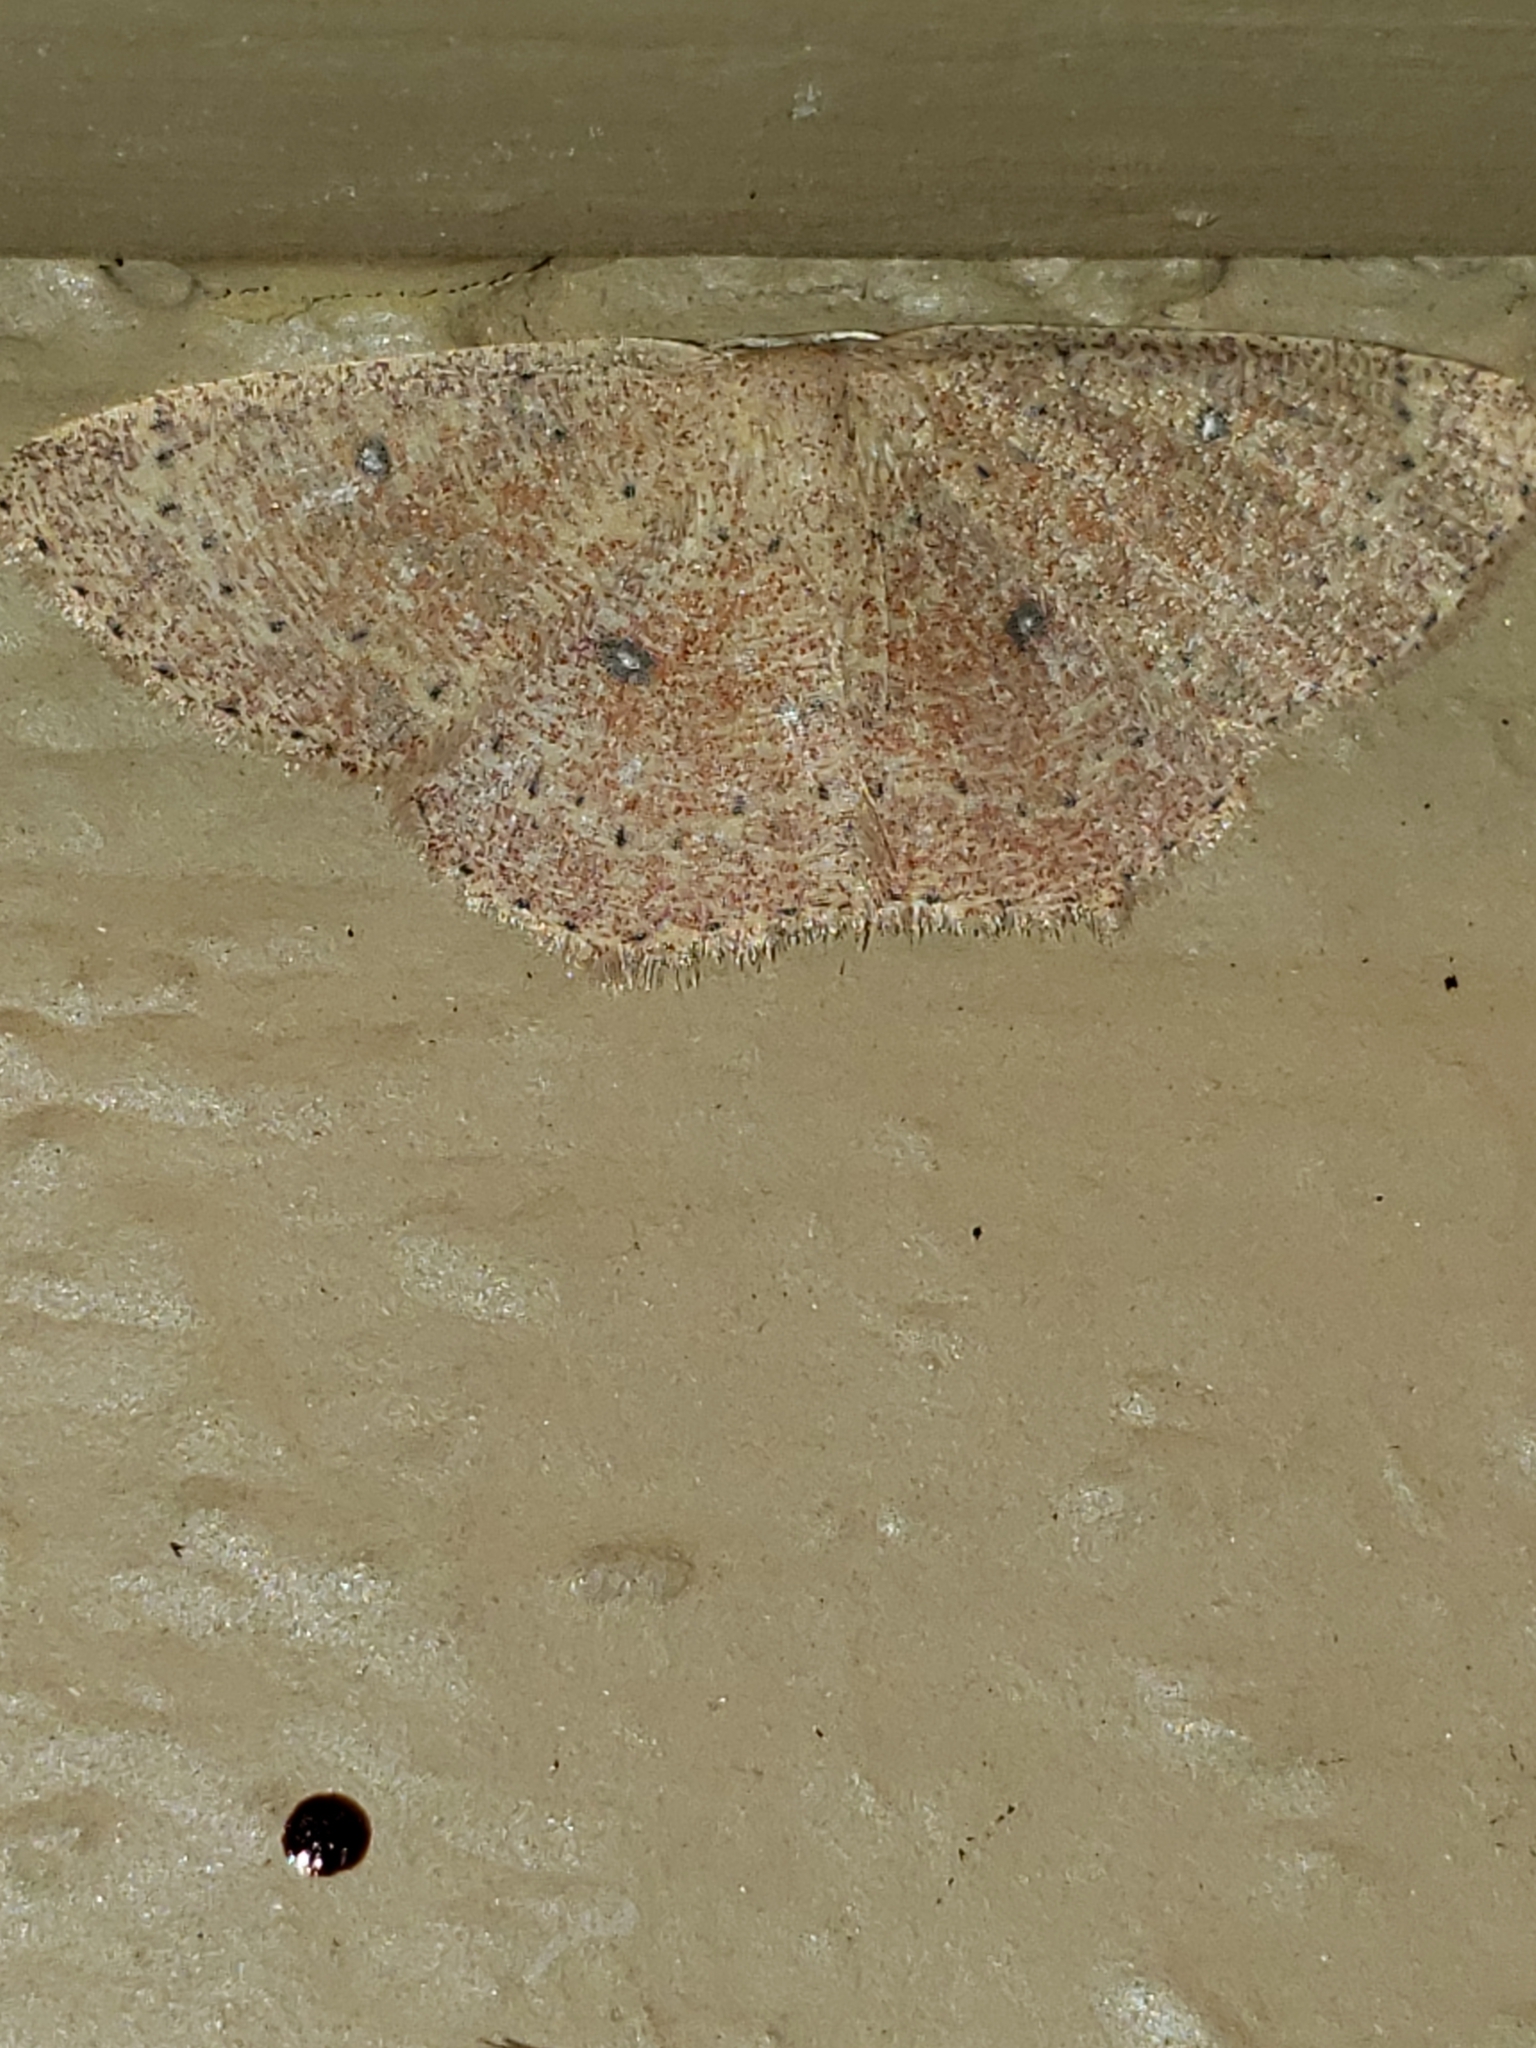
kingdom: Animalia
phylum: Arthropoda
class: Insecta
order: Lepidoptera
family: Geometridae
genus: Cyclophora
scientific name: Cyclophora packardi
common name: Packard's wave
